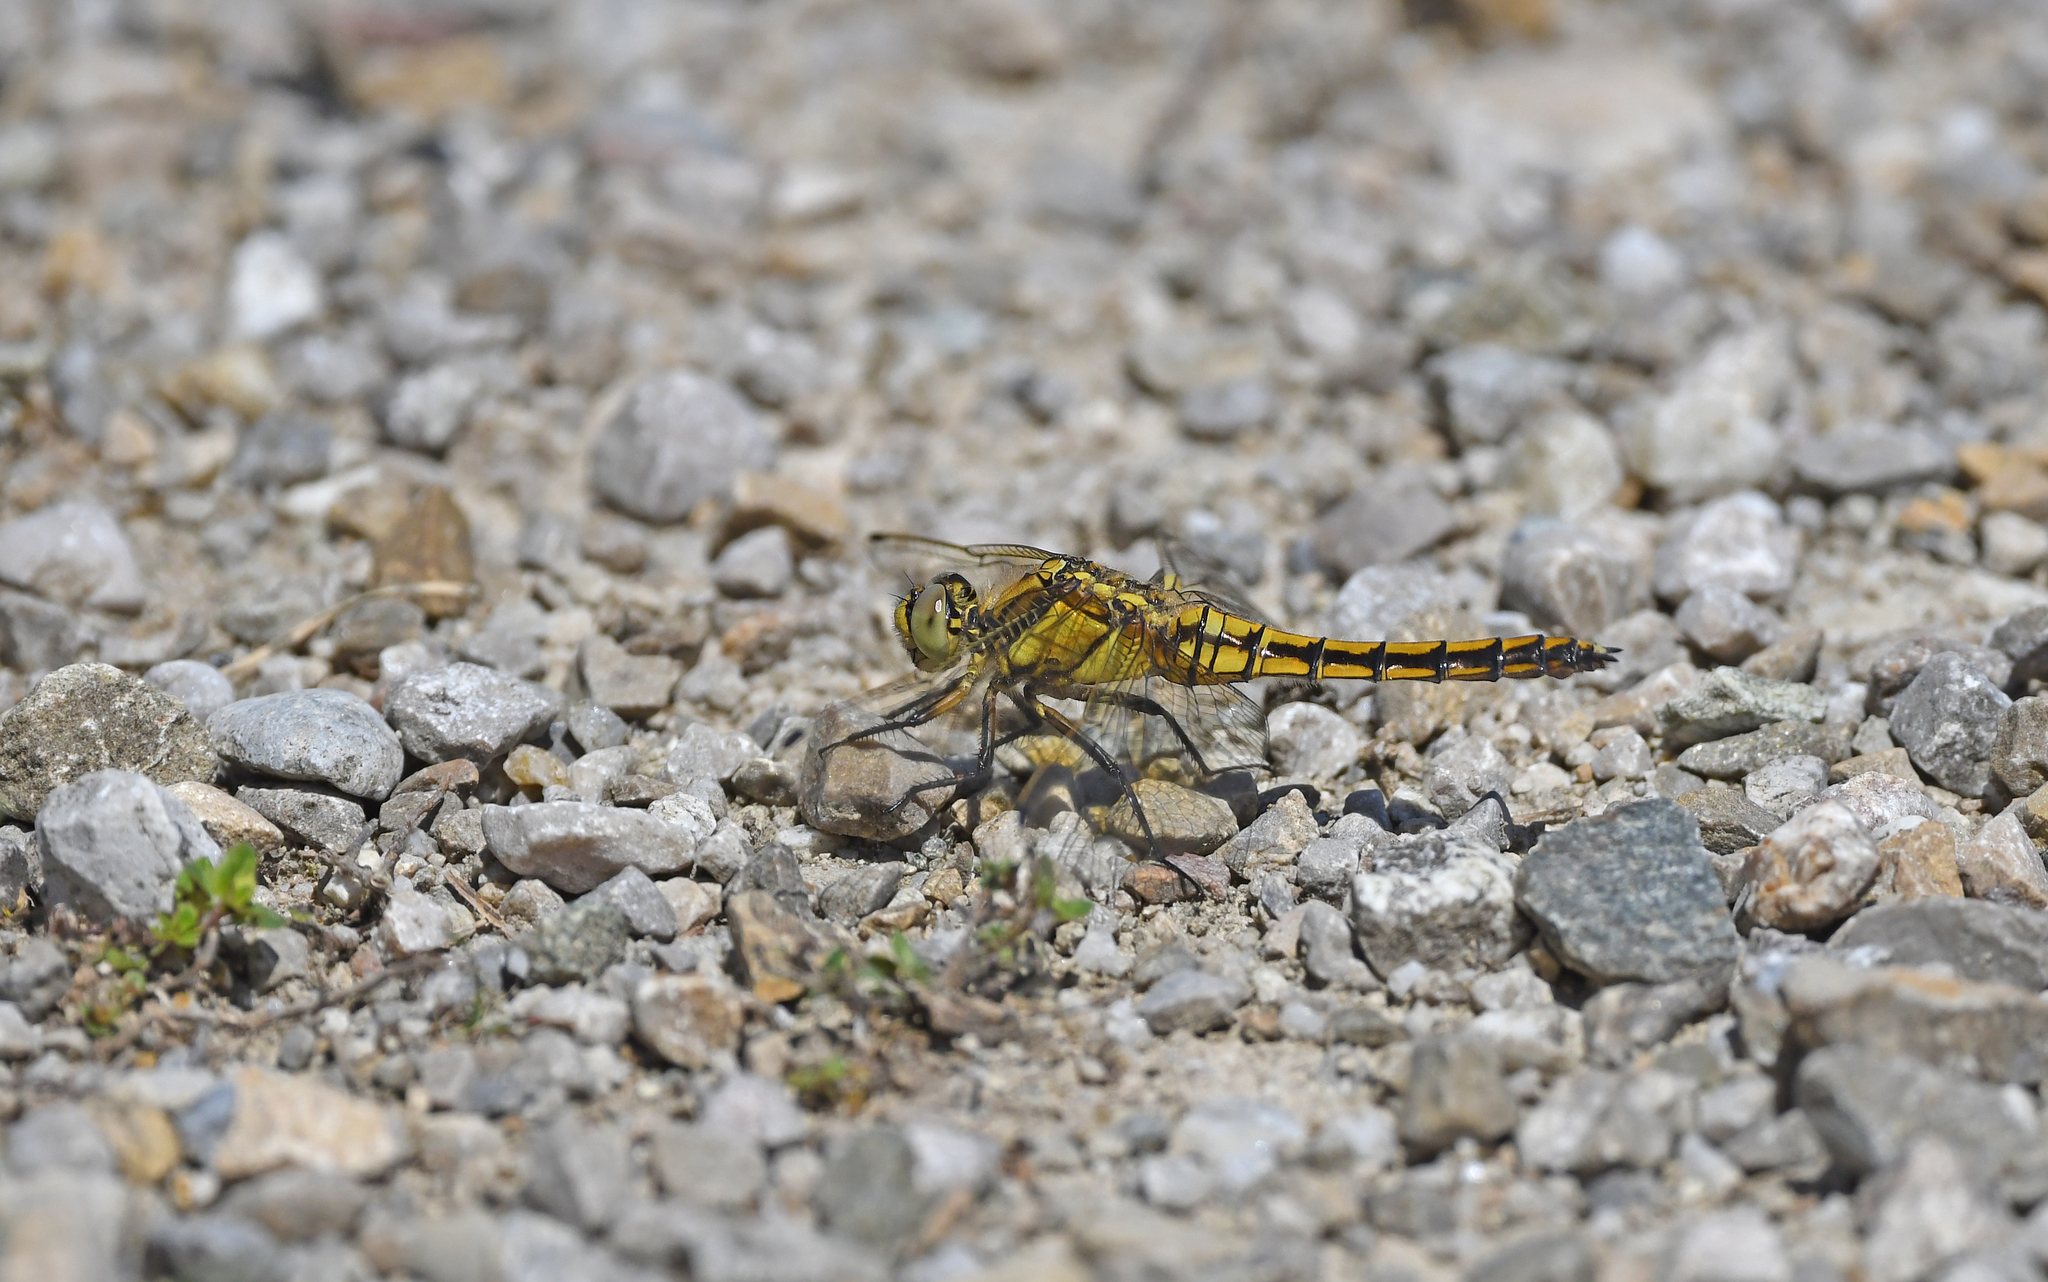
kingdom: Animalia
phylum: Arthropoda
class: Insecta
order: Odonata
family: Libellulidae
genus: Orthetrum
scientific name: Orthetrum cancellatum
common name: Black-tailed skimmer
